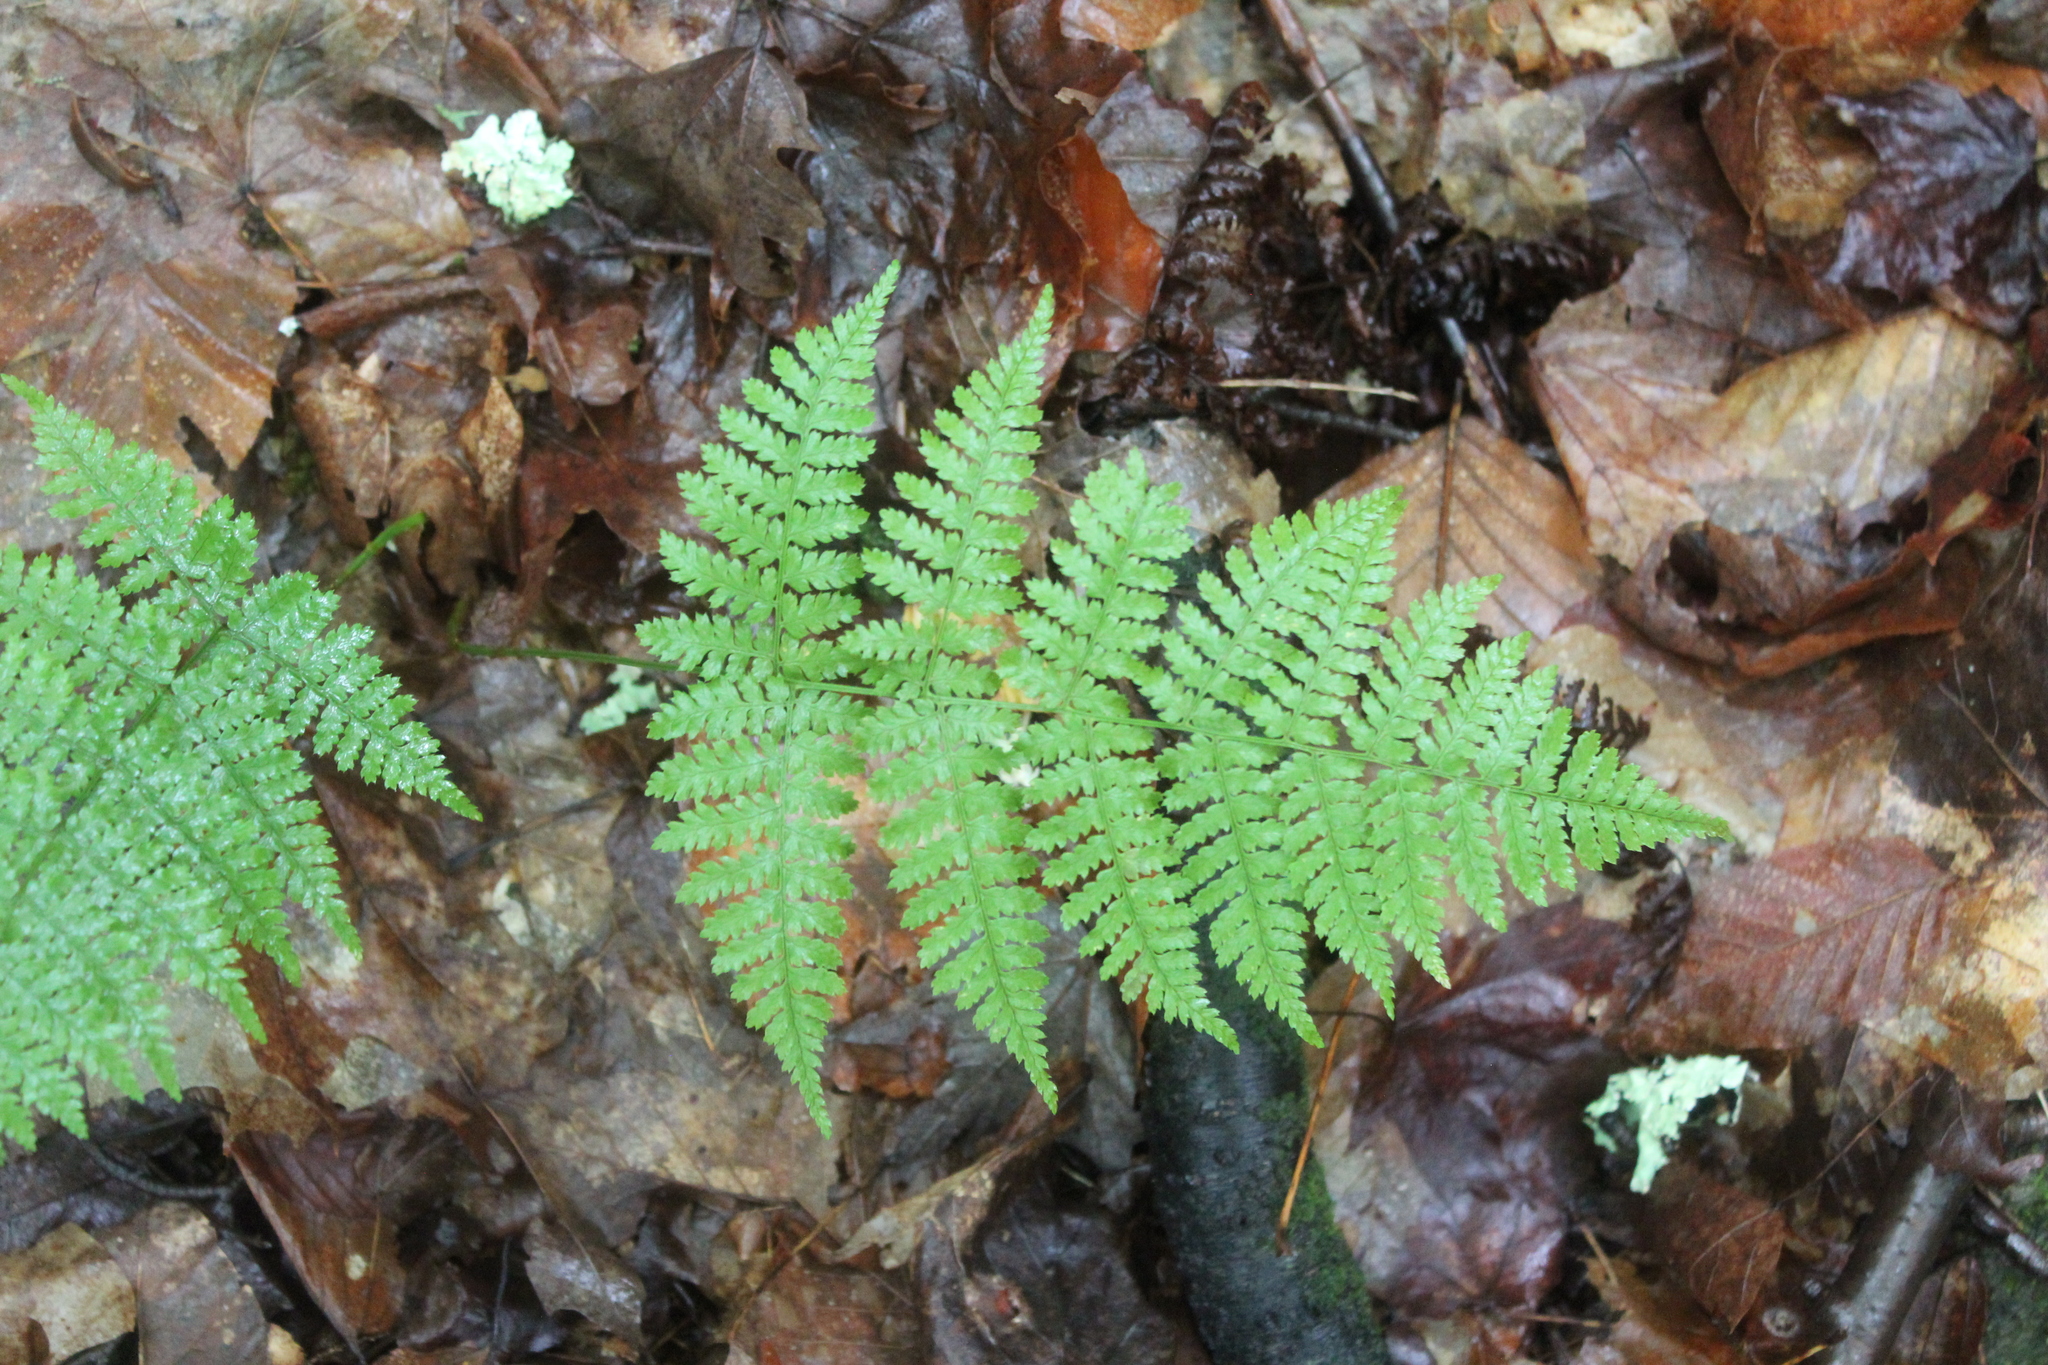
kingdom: Plantae
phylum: Tracheophyta
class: Polypodiopsida
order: Polypodiales
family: Dryopteridaceae
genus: Dryopteris
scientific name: Dryopteris intermedia
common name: Evergreen wood fern
